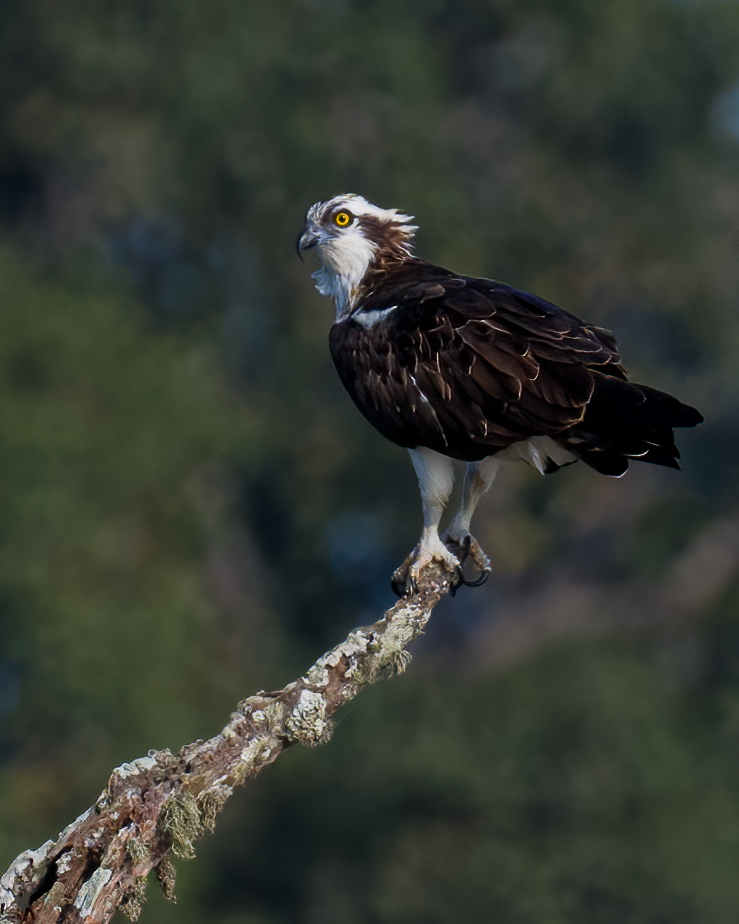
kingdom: Animalia
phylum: Chordata
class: Aves
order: Accipitriformes
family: Pandionidae
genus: Pandion
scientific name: Pandion haliaetus
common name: Osprey
